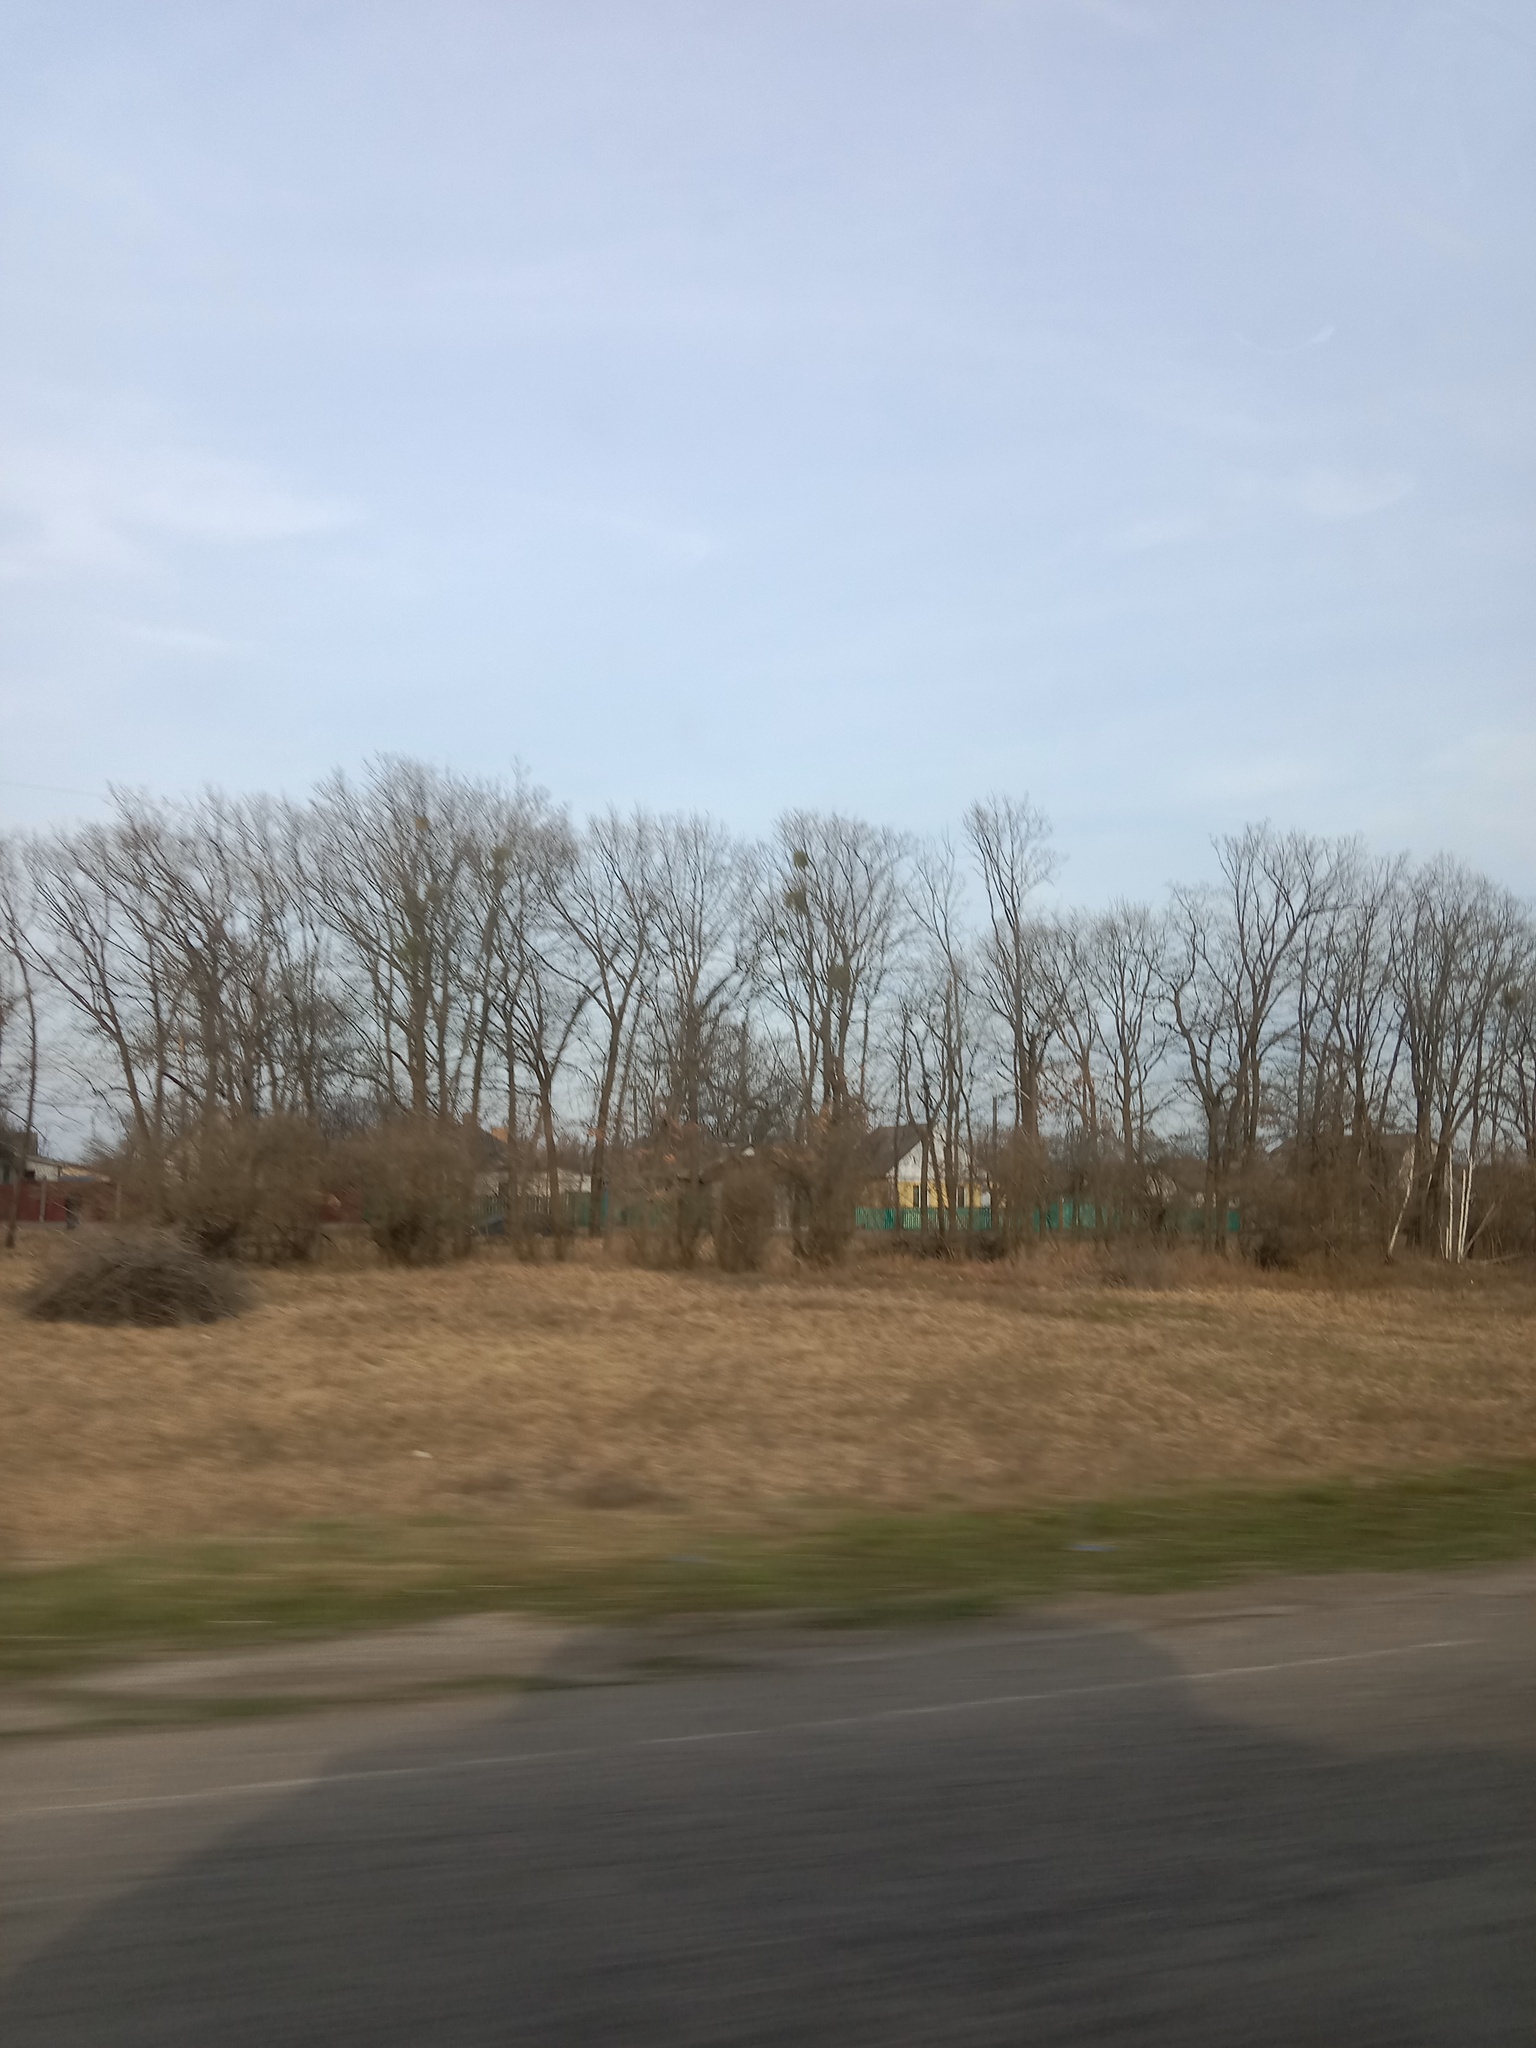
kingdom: Plantae
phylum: Tracheophyta
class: Magnoliopsida
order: Santalales
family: Viscaceae
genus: Viscum
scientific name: Viscum album
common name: Mistletoe
